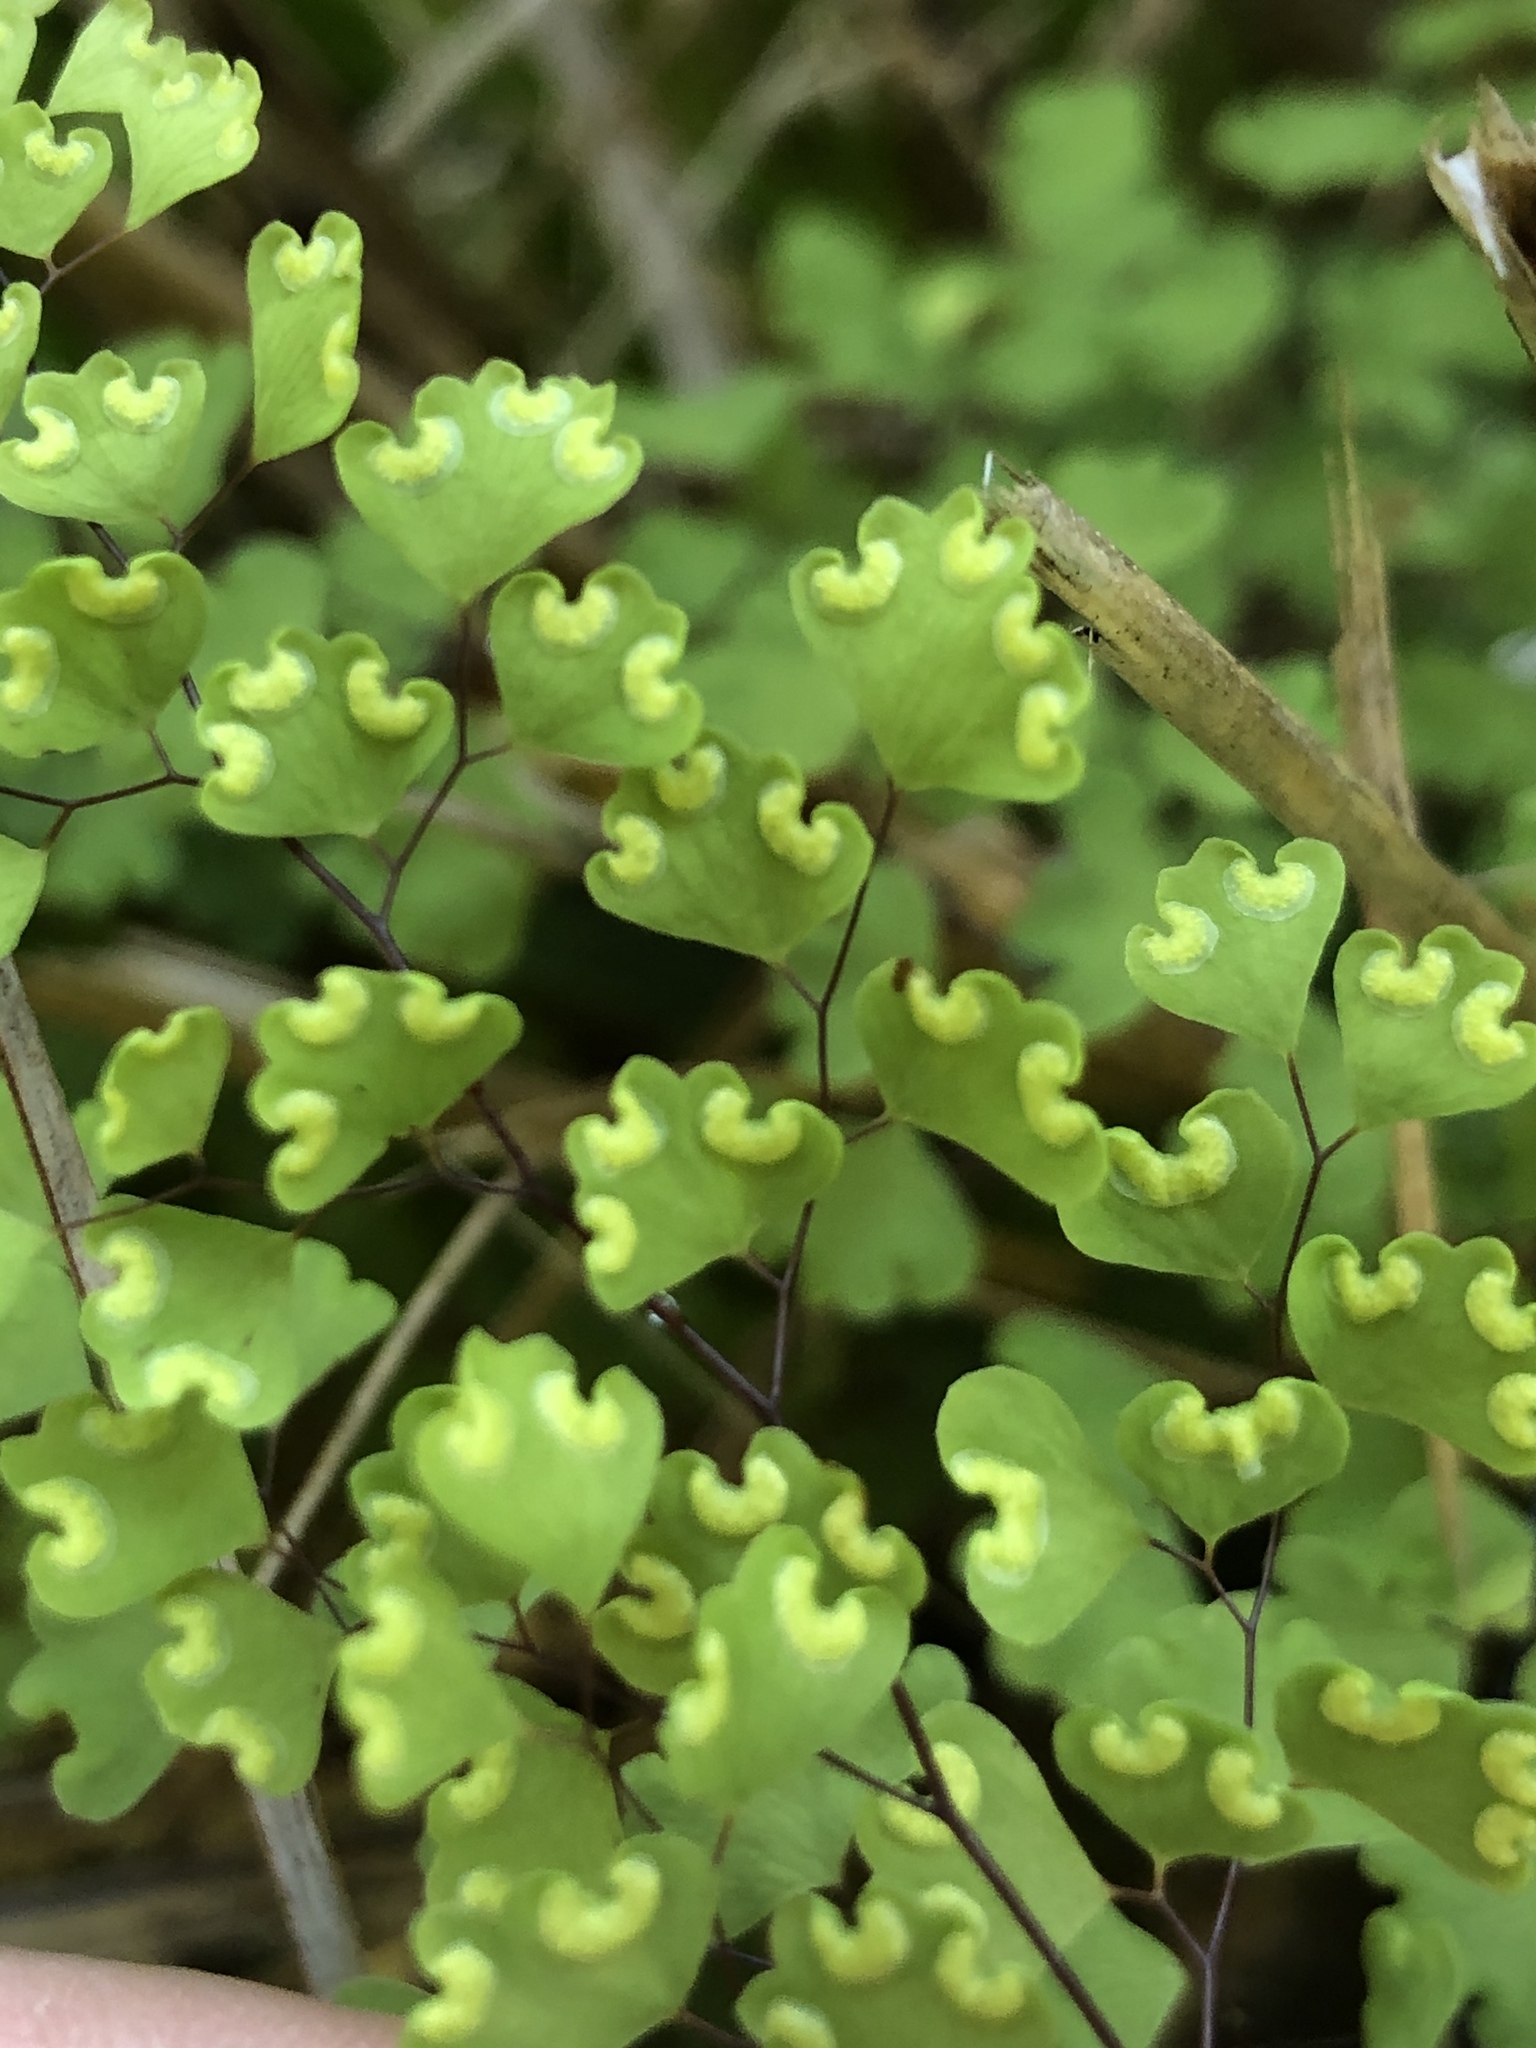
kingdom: Plantae
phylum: Tracheophyta
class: Polypodiopsida
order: Polypodiales
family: Pteridaceae
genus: Adiantum
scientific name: Adiantum aethiopicum
